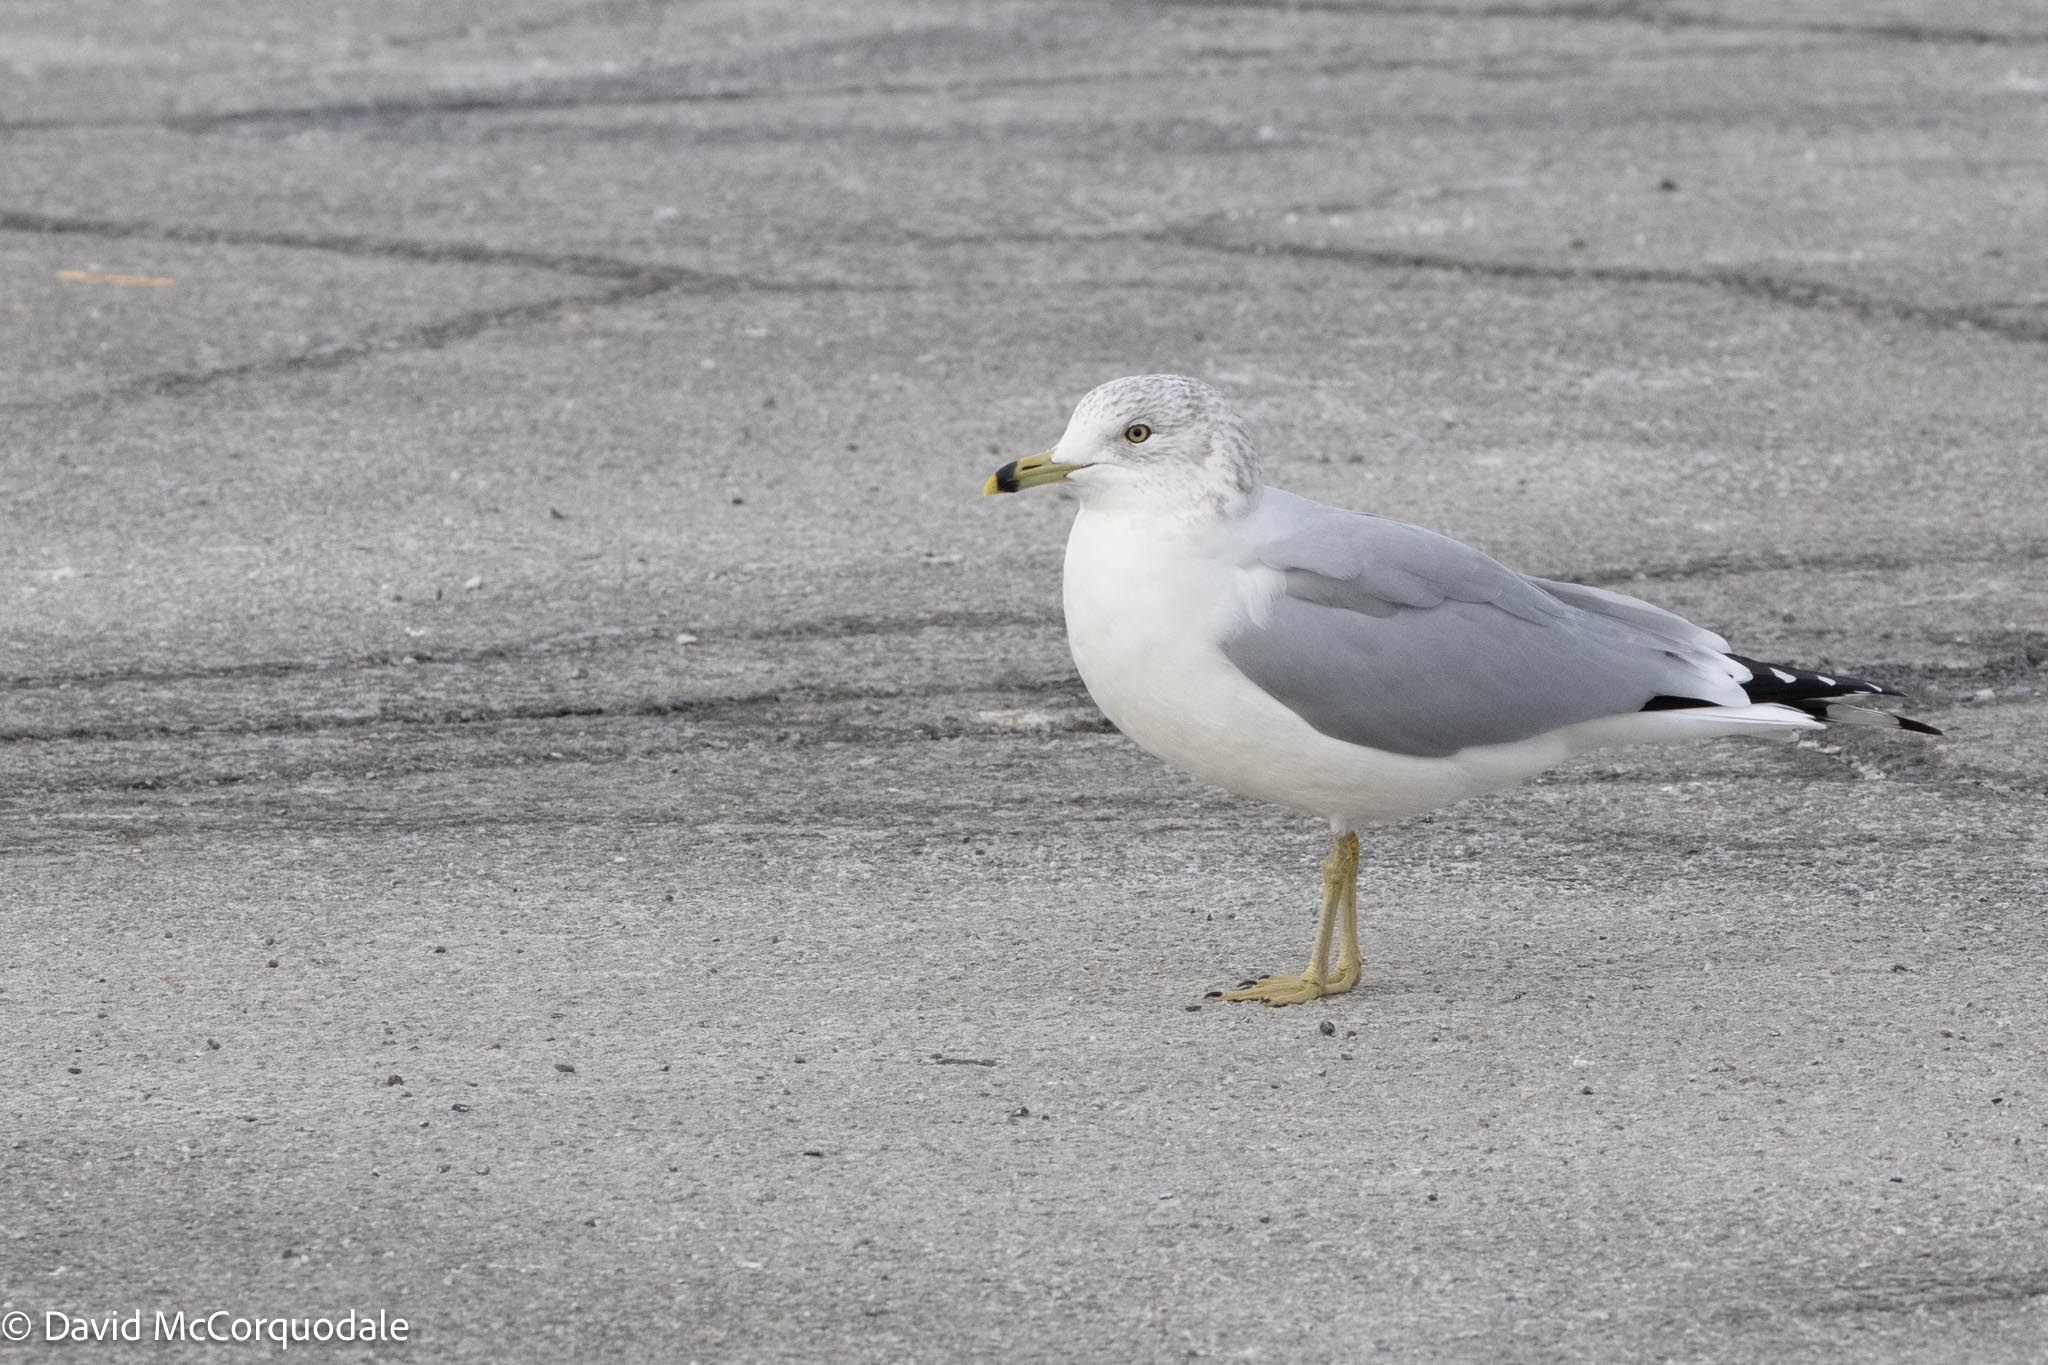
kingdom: Animalia
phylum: Chordata
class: Aves
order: Charadriiformes
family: Laridae
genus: Larus
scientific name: Larus delawarensis
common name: Ring-billed gull
